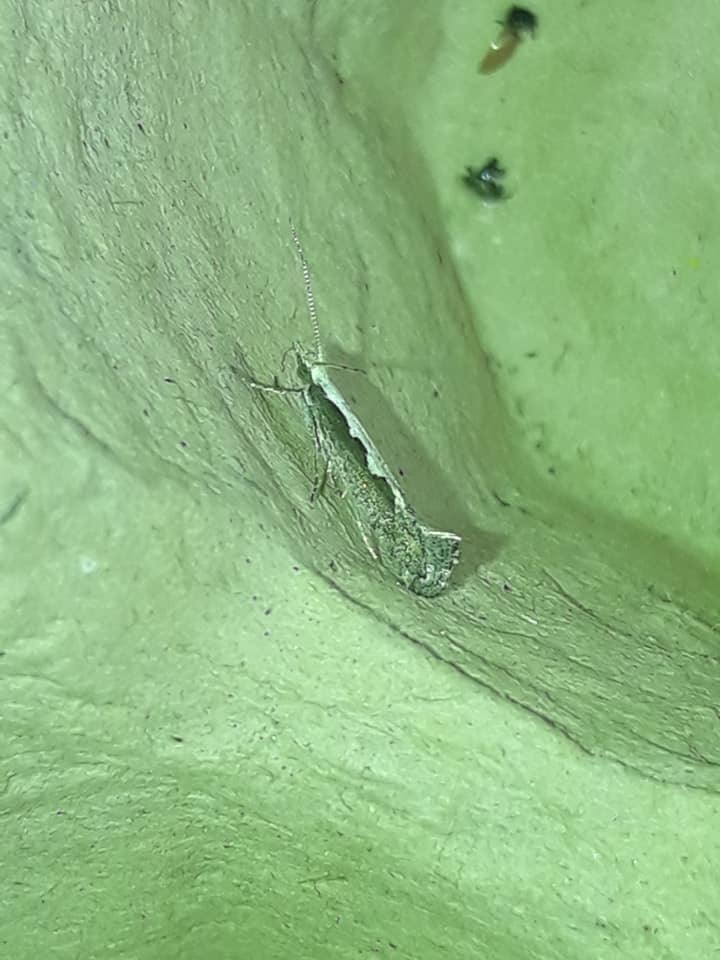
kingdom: Animalia
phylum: Arthropoda
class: Insecta
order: Lepidoptera
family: Plutellidae
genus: Plutella
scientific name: Plutella xylostella
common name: Diamond-back moth
